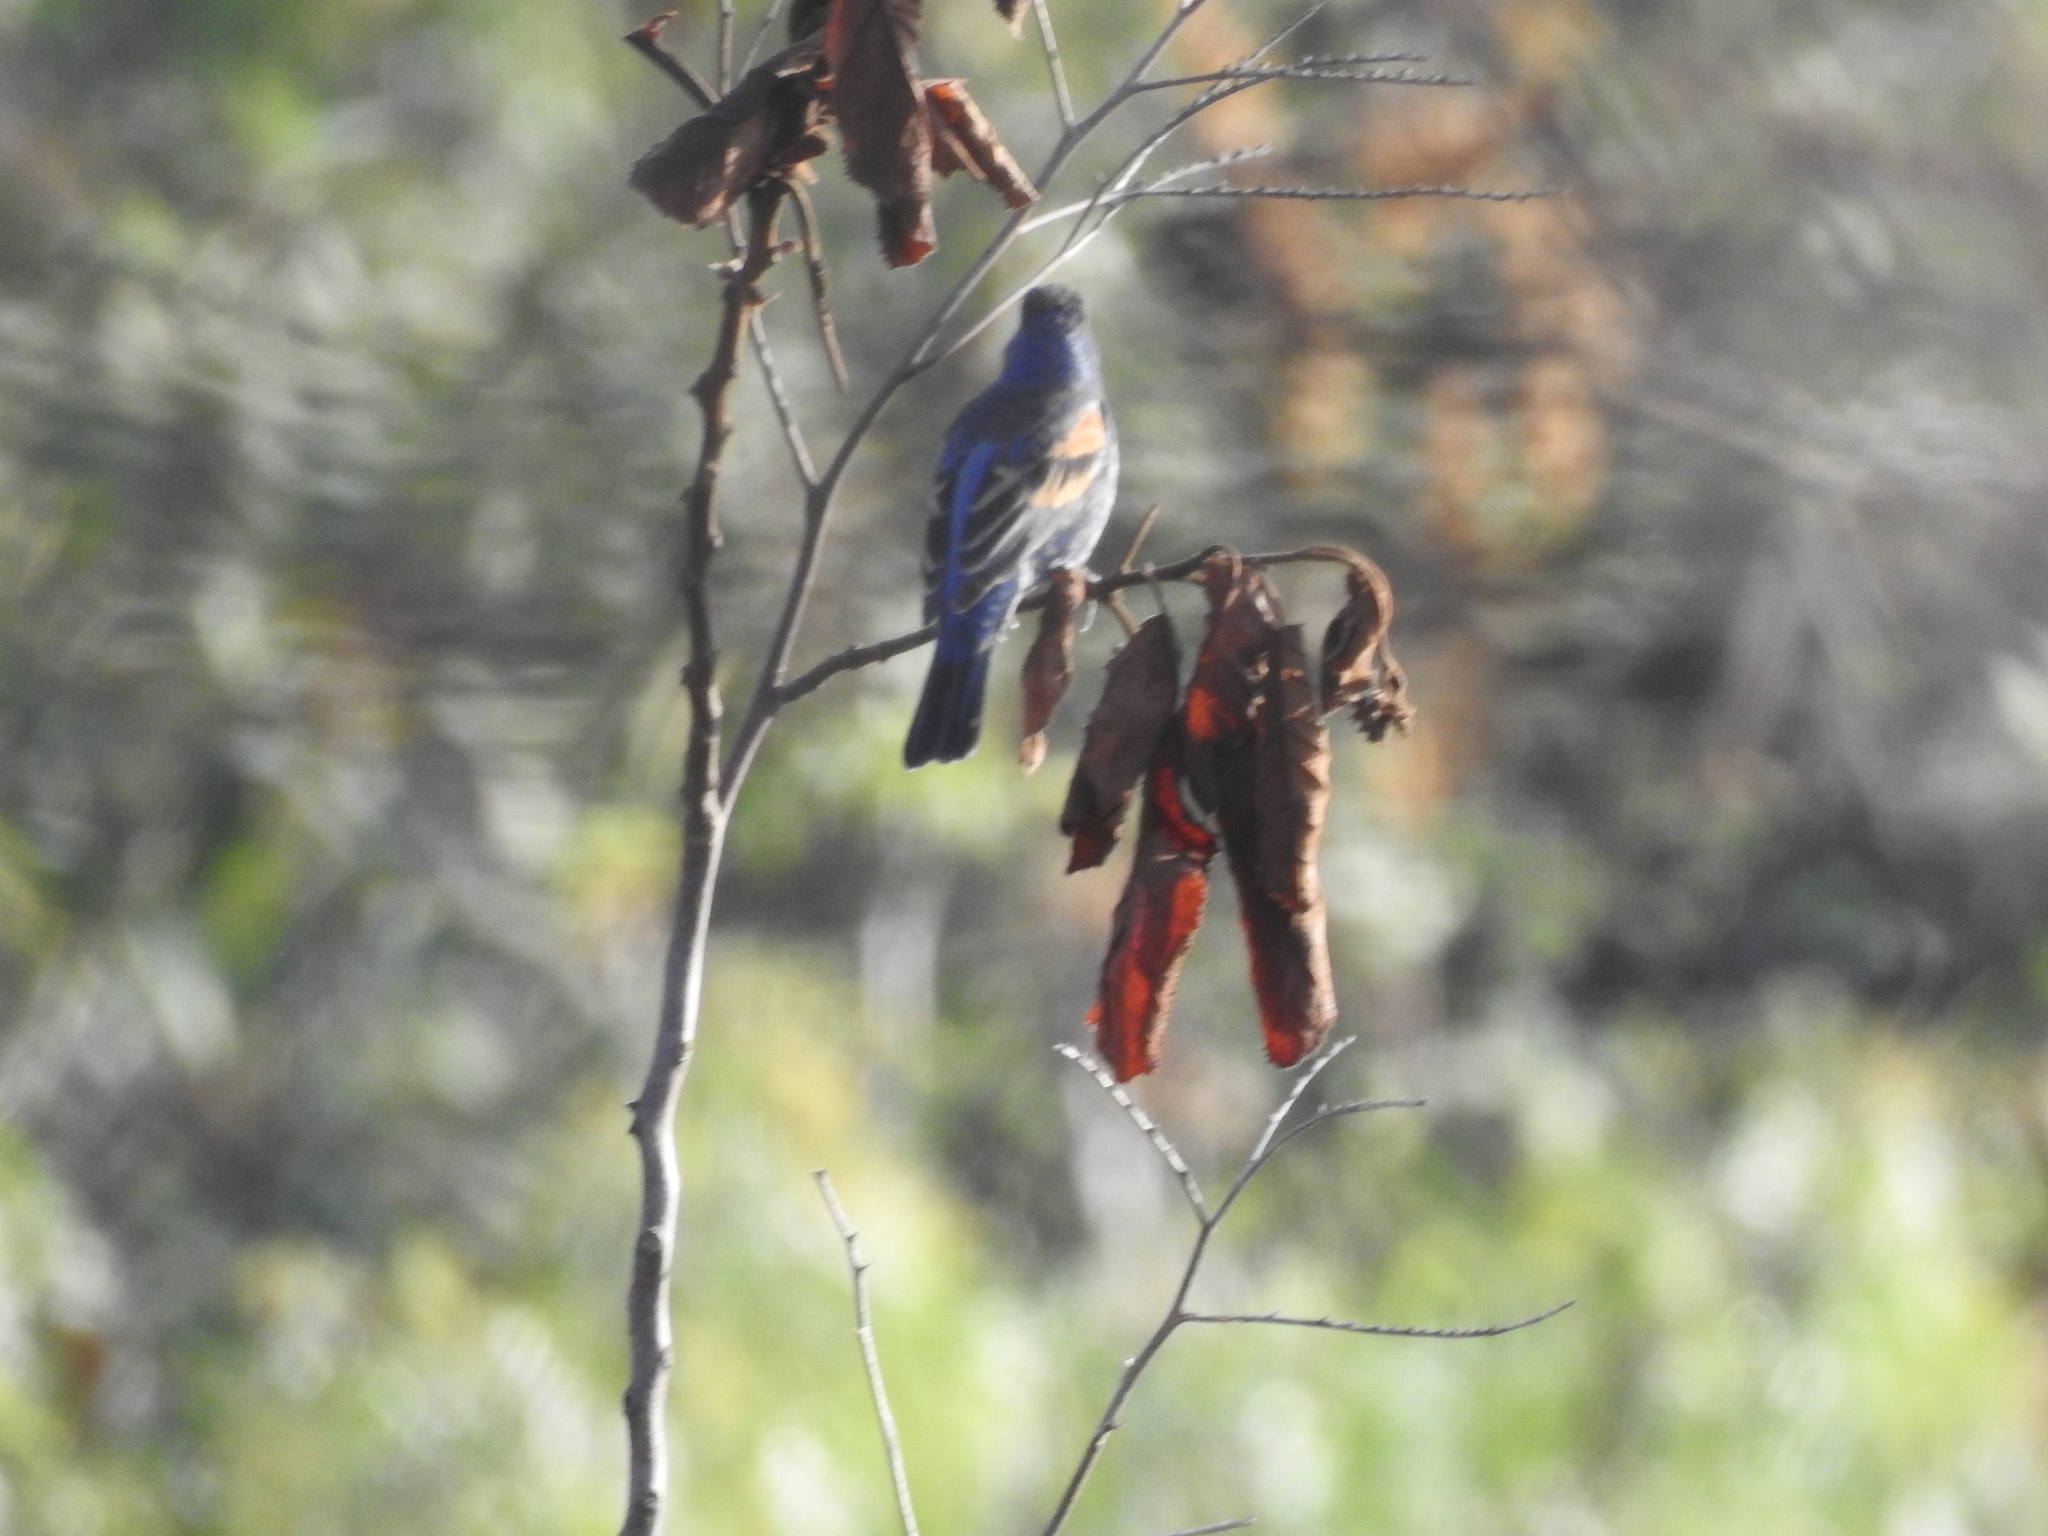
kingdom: Animalia
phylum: Chordata
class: Aves
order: Passeriformes
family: Cardinalidae
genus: Passerina
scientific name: Passerina caerulea
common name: Blue grosbeak
